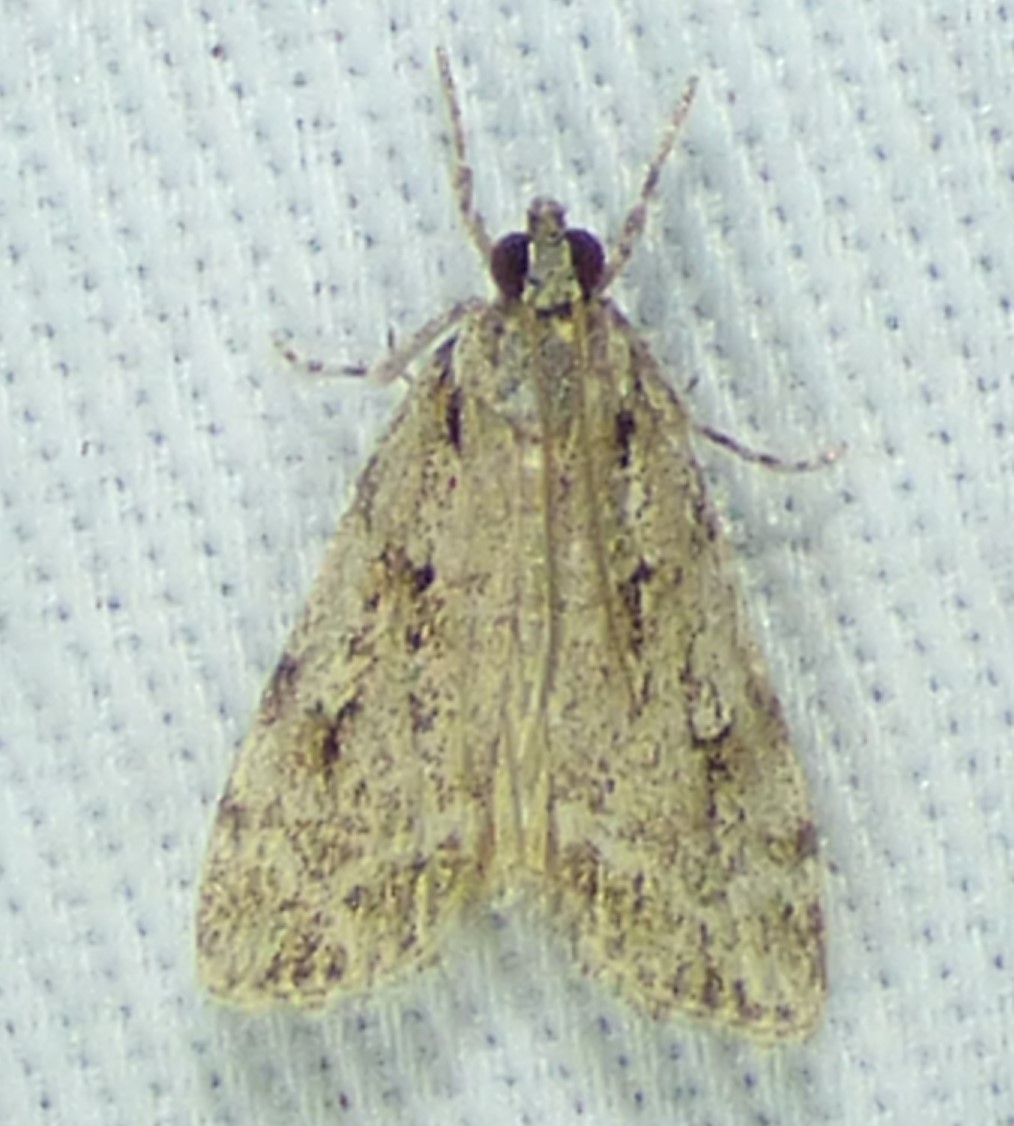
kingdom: Animalia
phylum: Arthropoda
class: Insecta
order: Lepidoptera
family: Crambidae
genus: Scoparia
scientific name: Scoparia basalis
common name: Many-spotted scoparia moth
